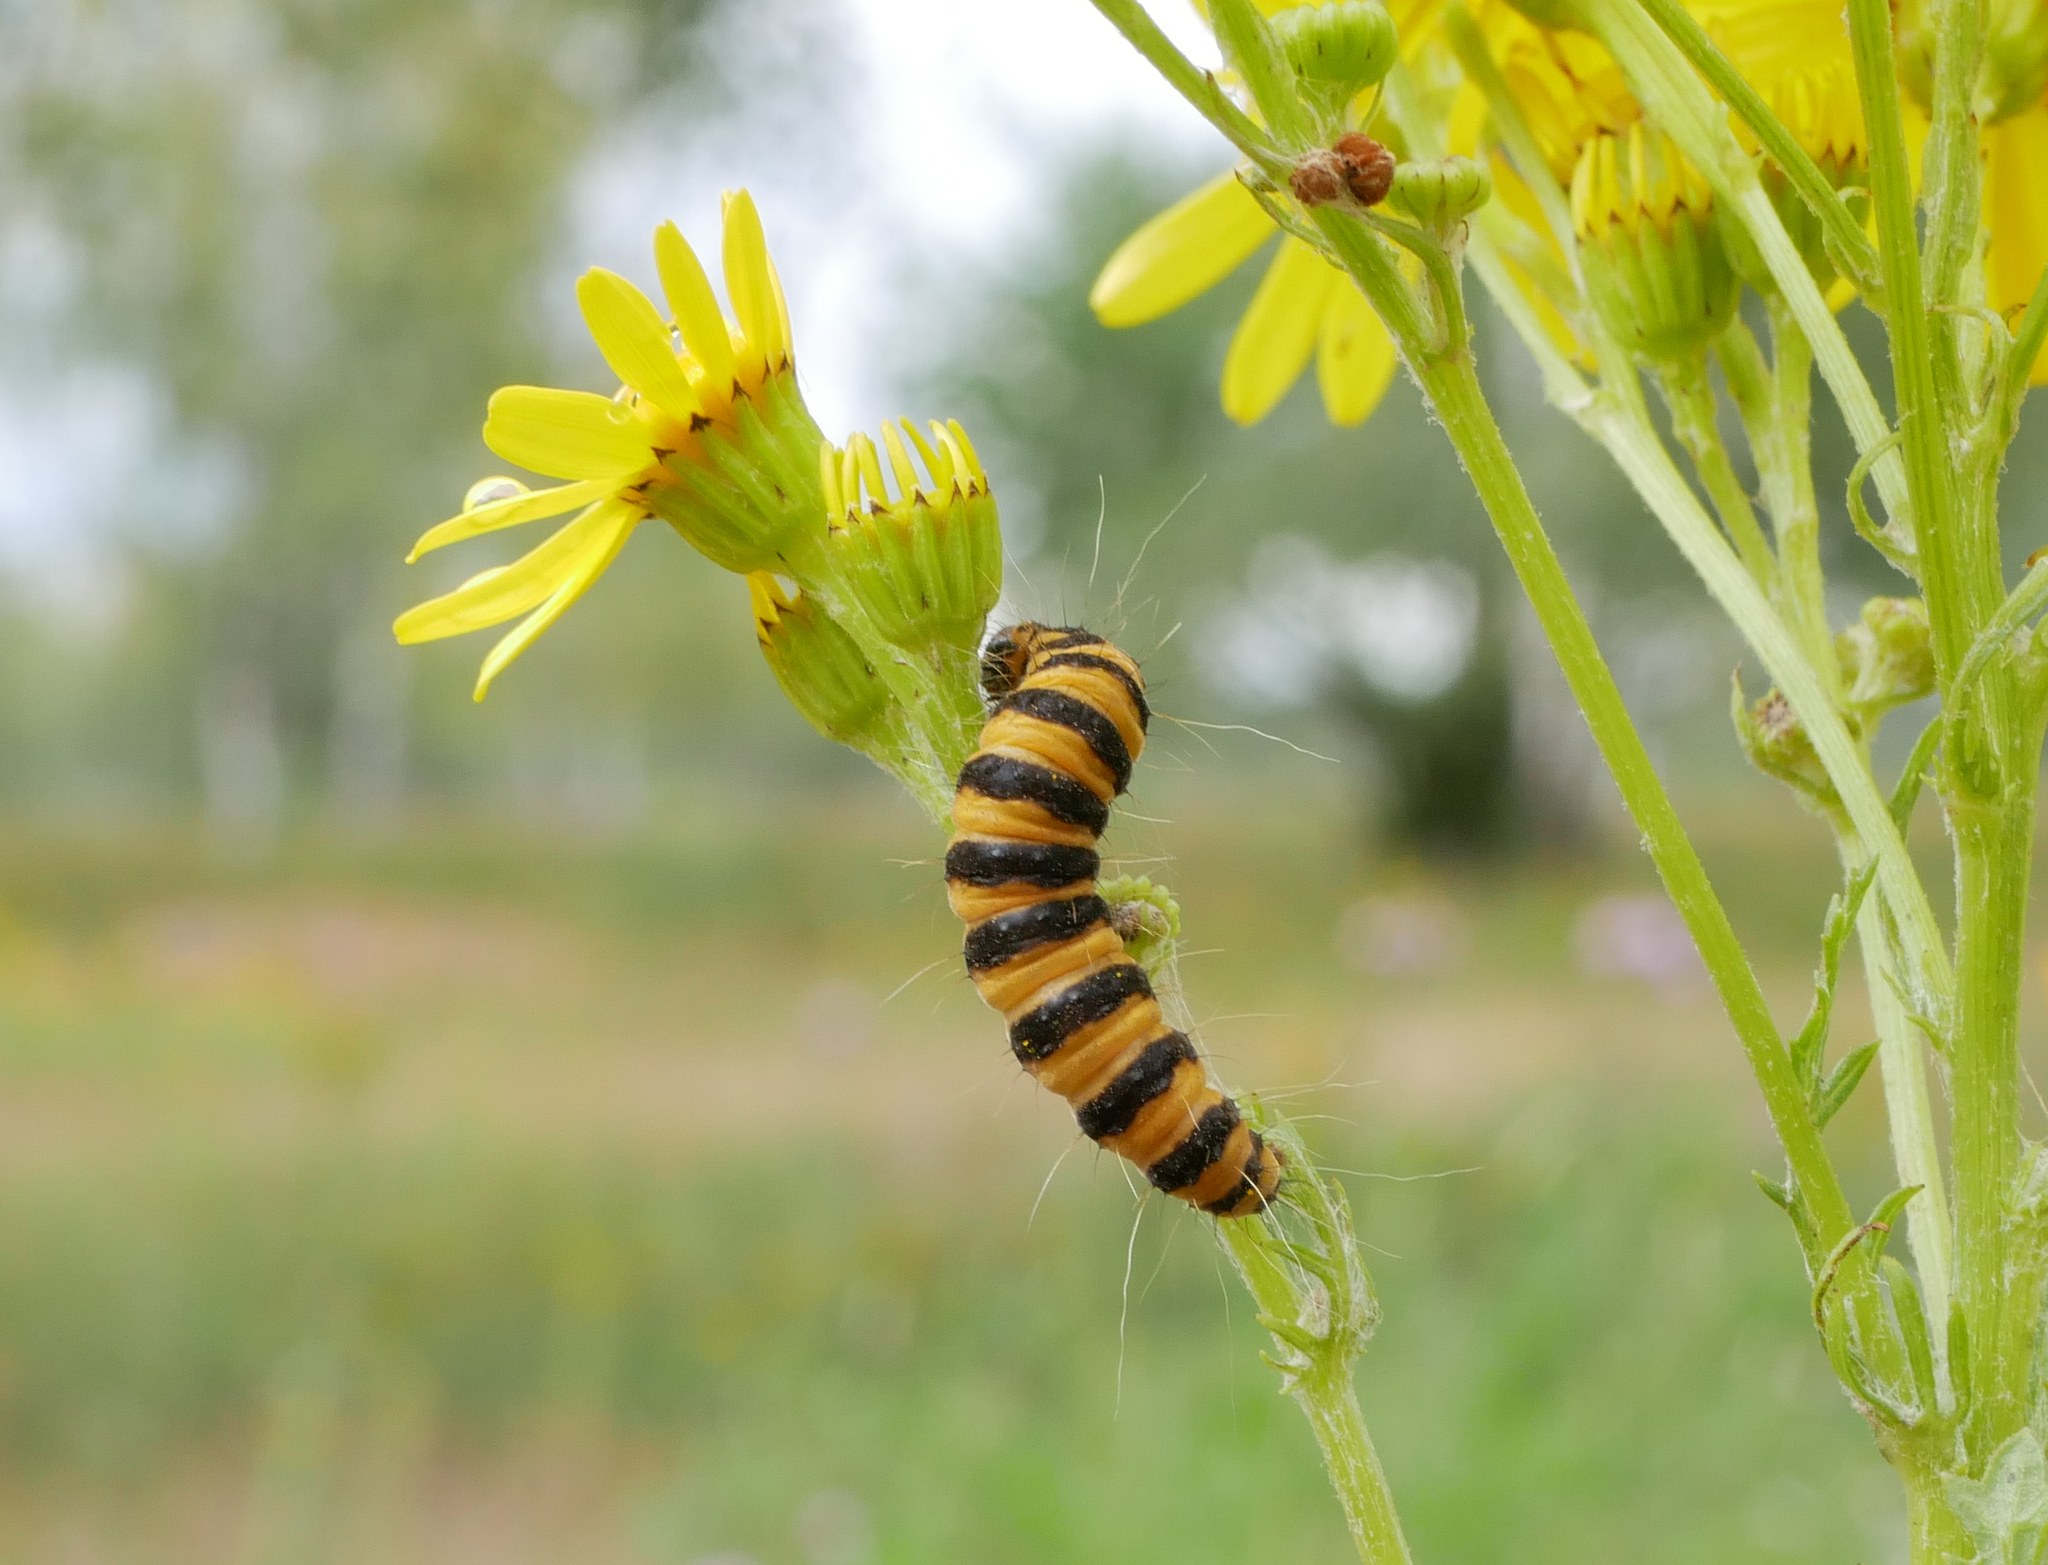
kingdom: Animalia
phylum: Arthropoda
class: Insecta
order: Lepidoptera
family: Erebidae
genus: Tyria
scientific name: Tyria jacobaeae
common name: Cinnabar
